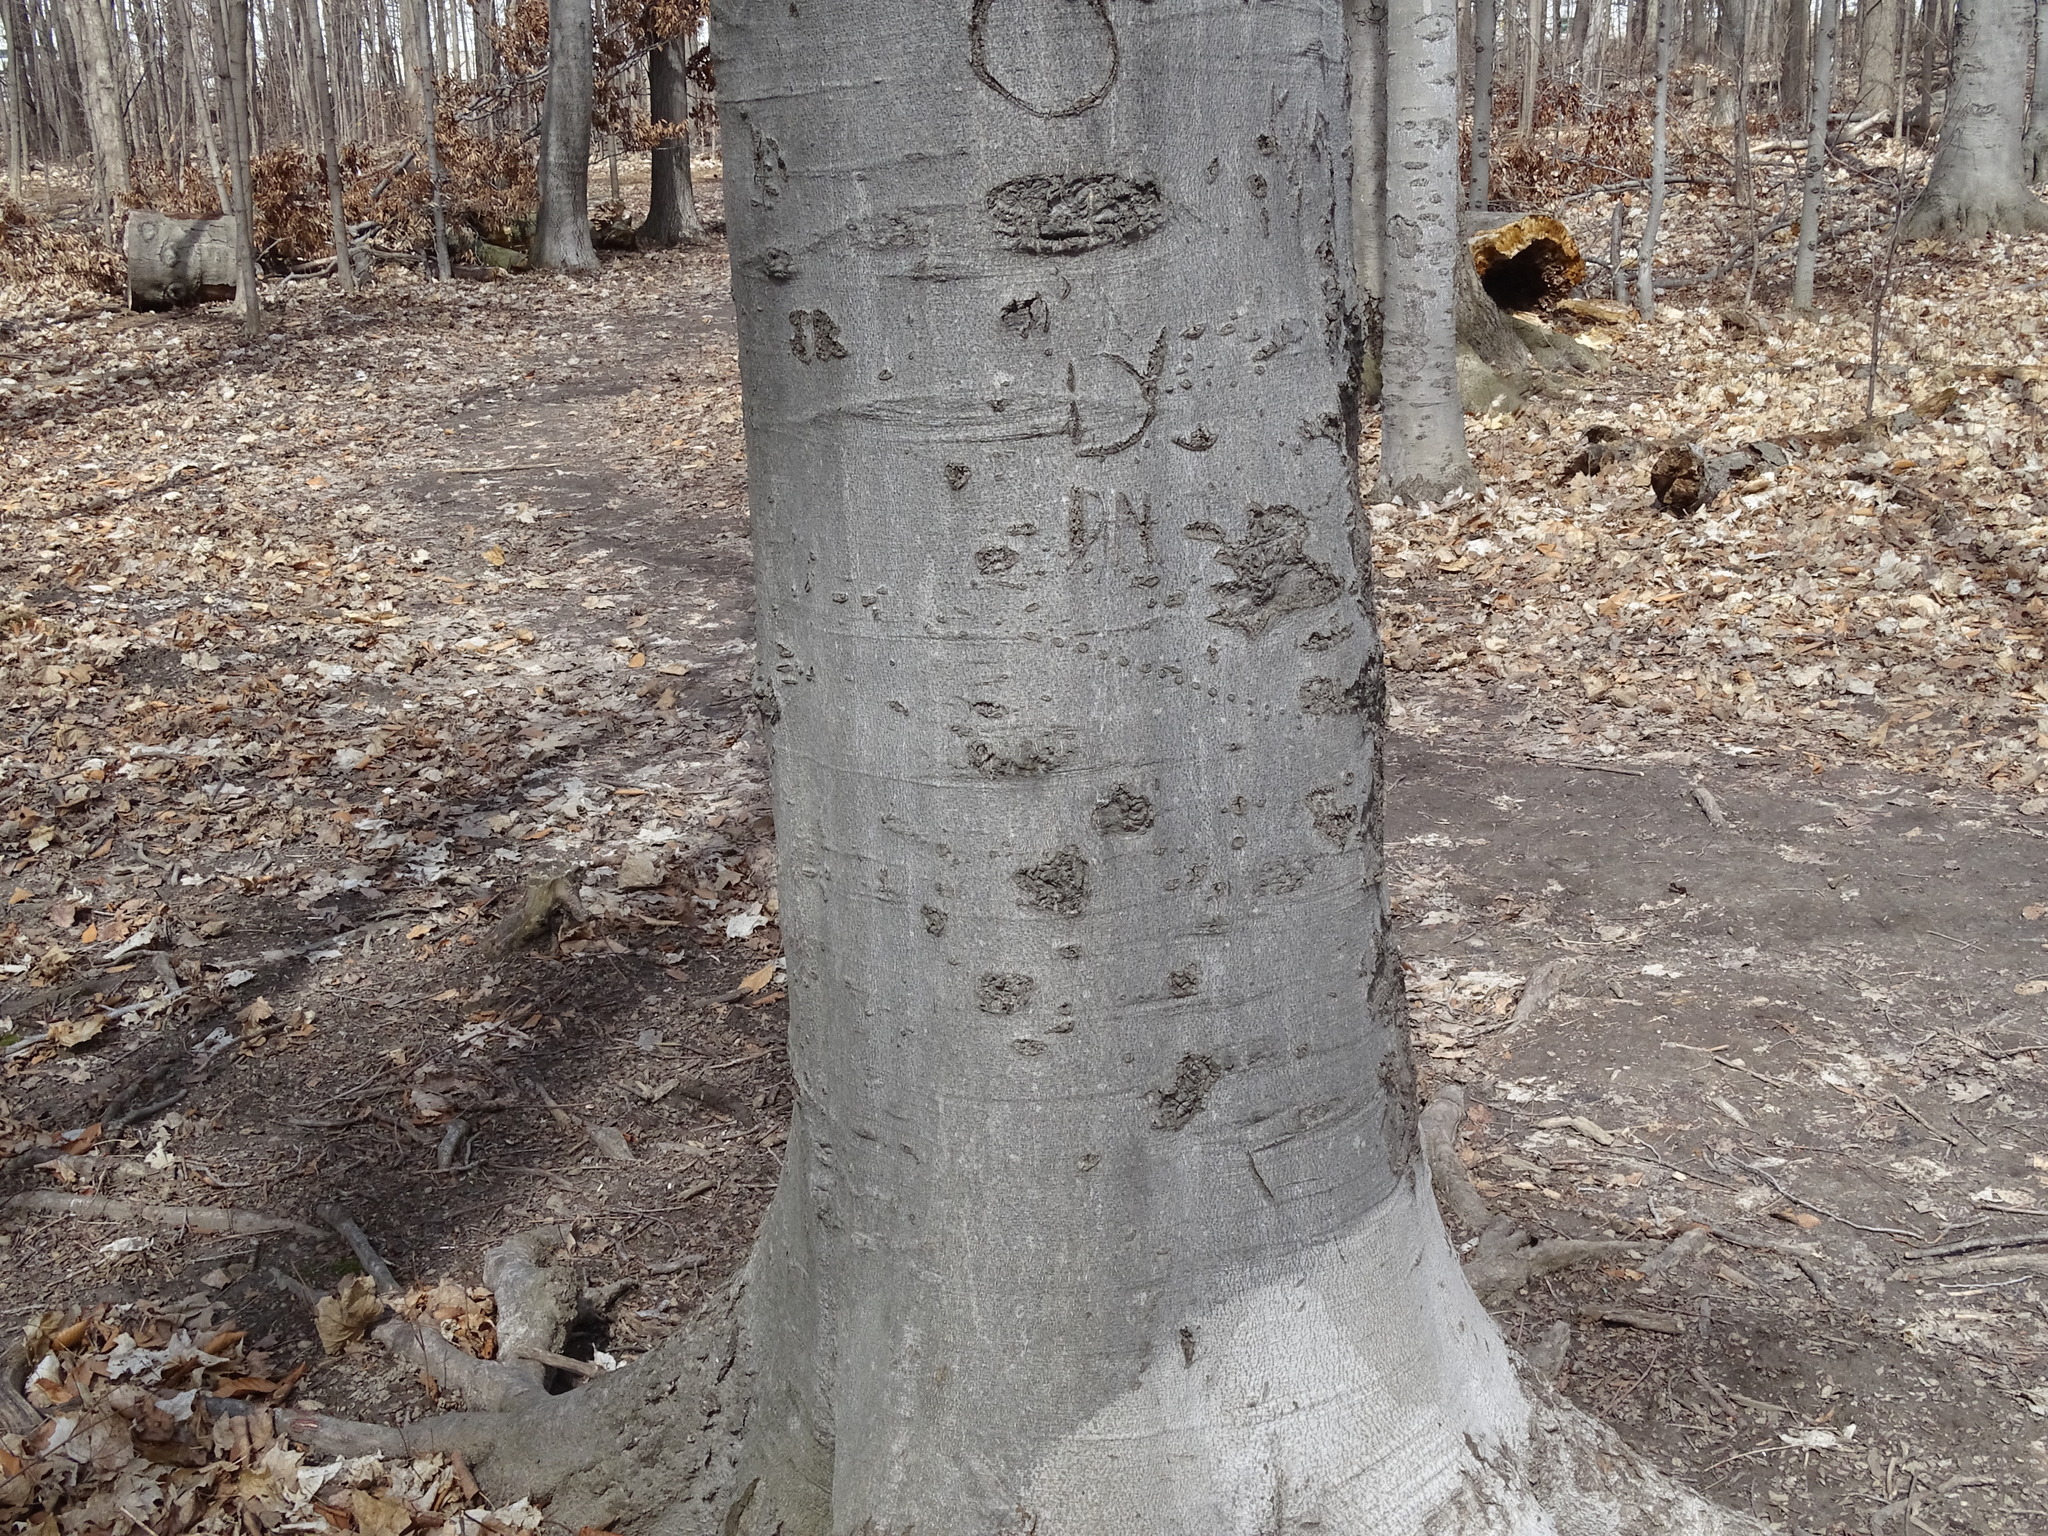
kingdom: Plantae
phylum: Tracheophyta
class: Magnoliopsida
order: Fagales
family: Fagaceae
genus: Fagus
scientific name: Fagus grandifolia
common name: American beech
